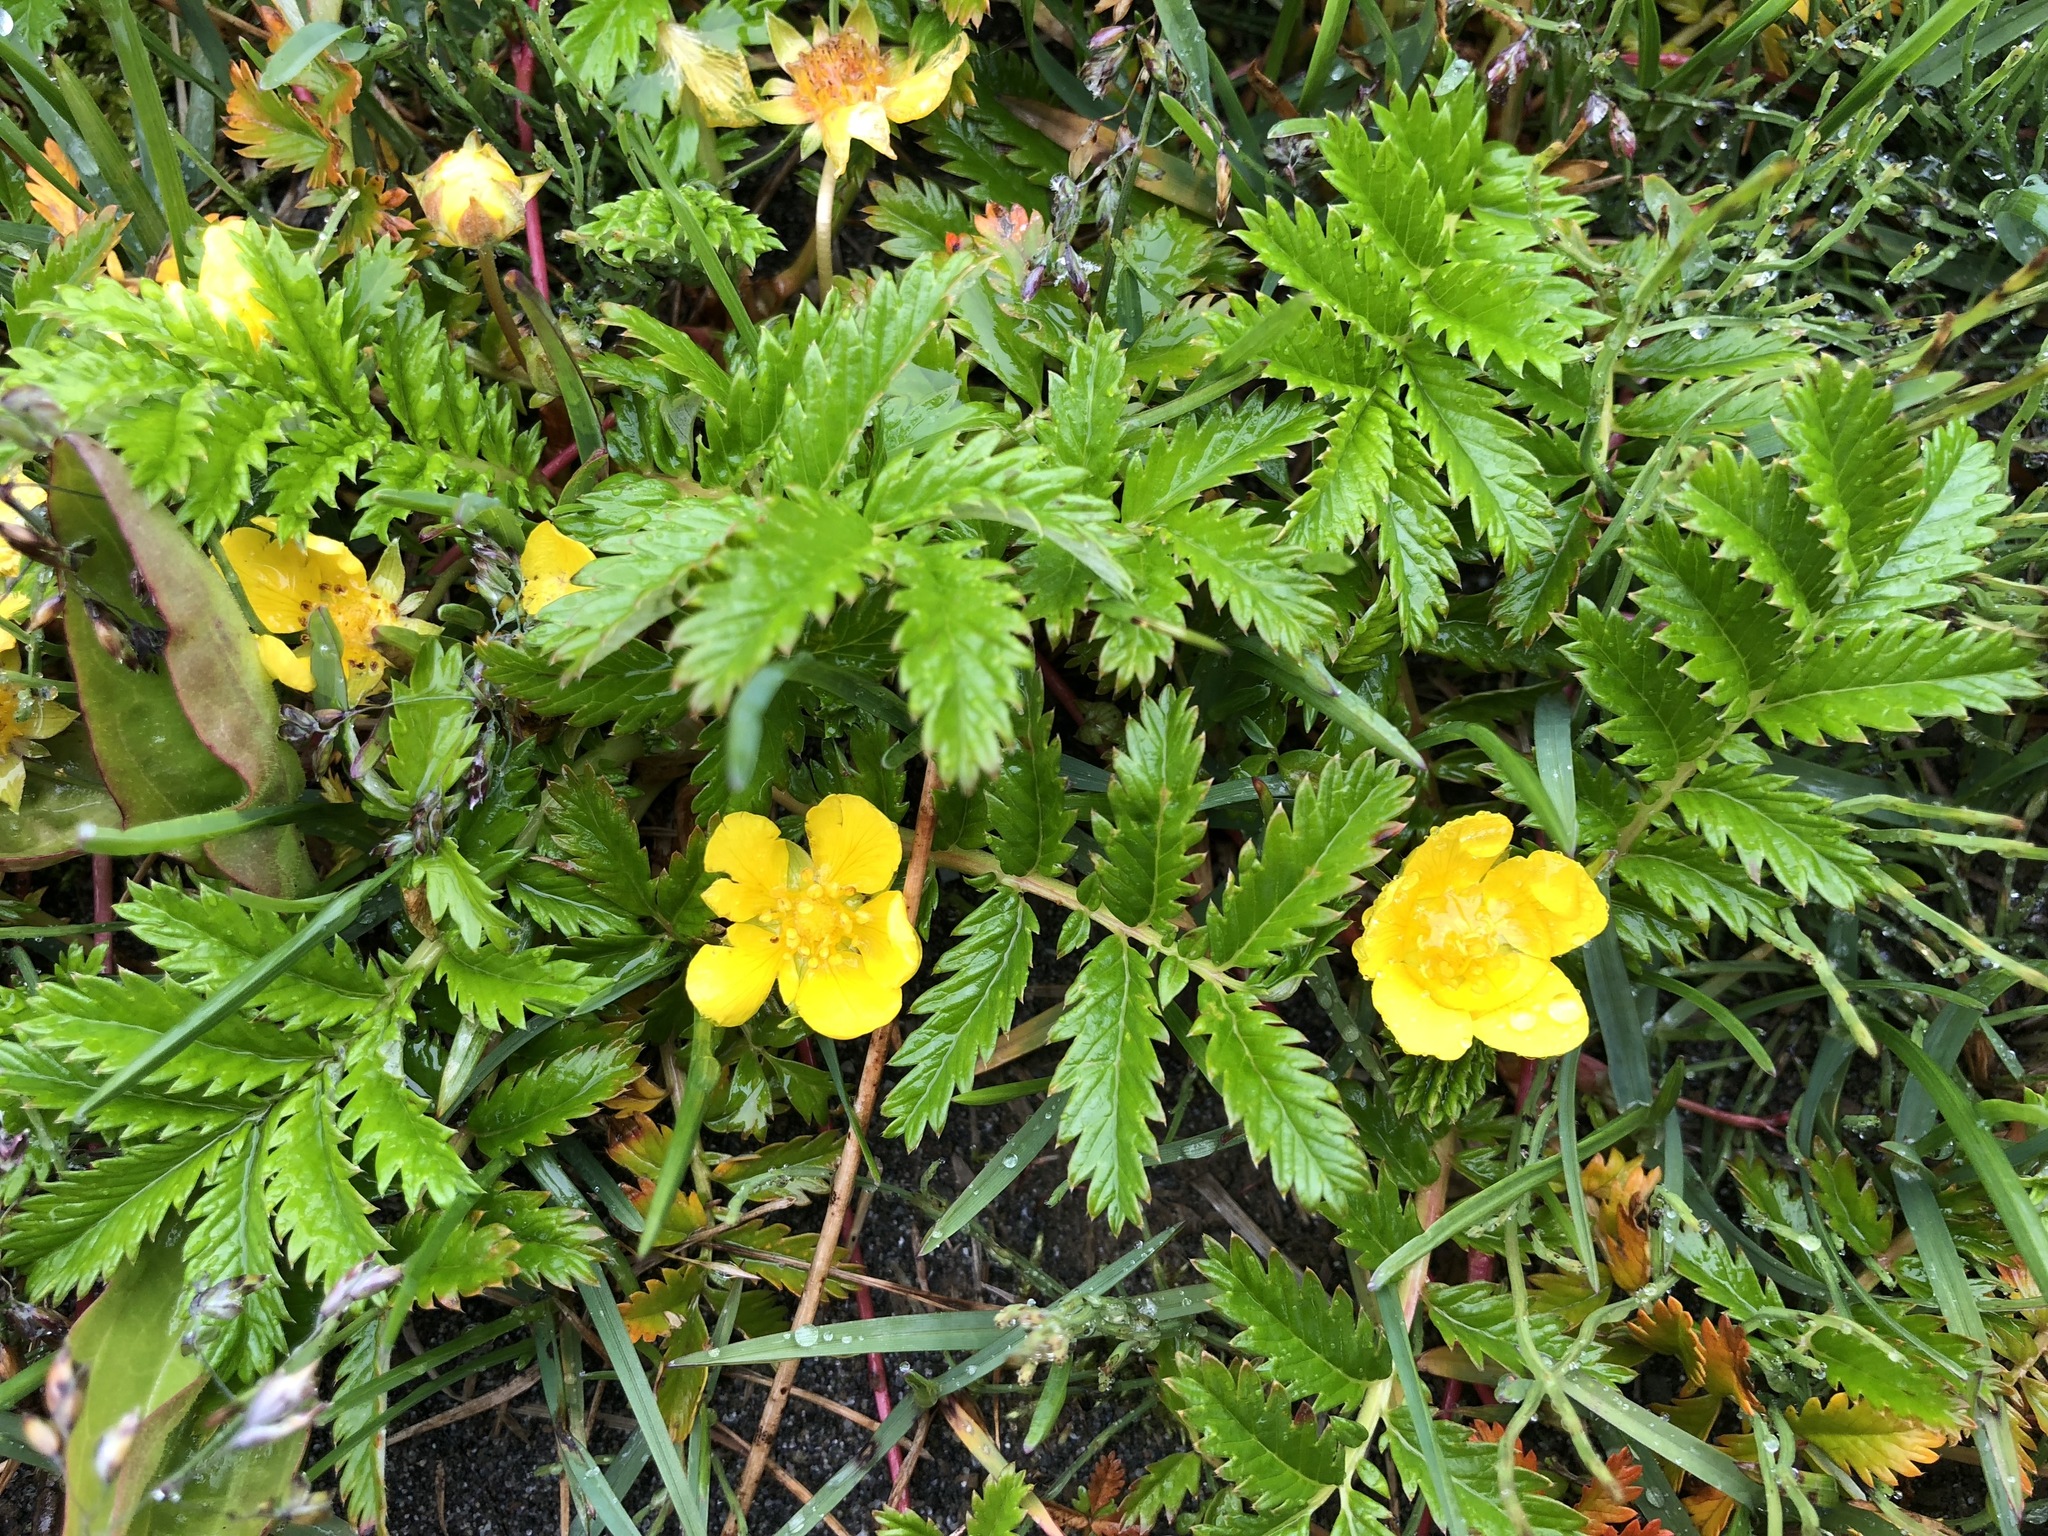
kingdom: Plantae
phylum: Tracheophyta
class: Magnoliopsida
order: Rosales
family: Rosaceae
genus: Argentina
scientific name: Argentina anserina
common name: Common silverweed
